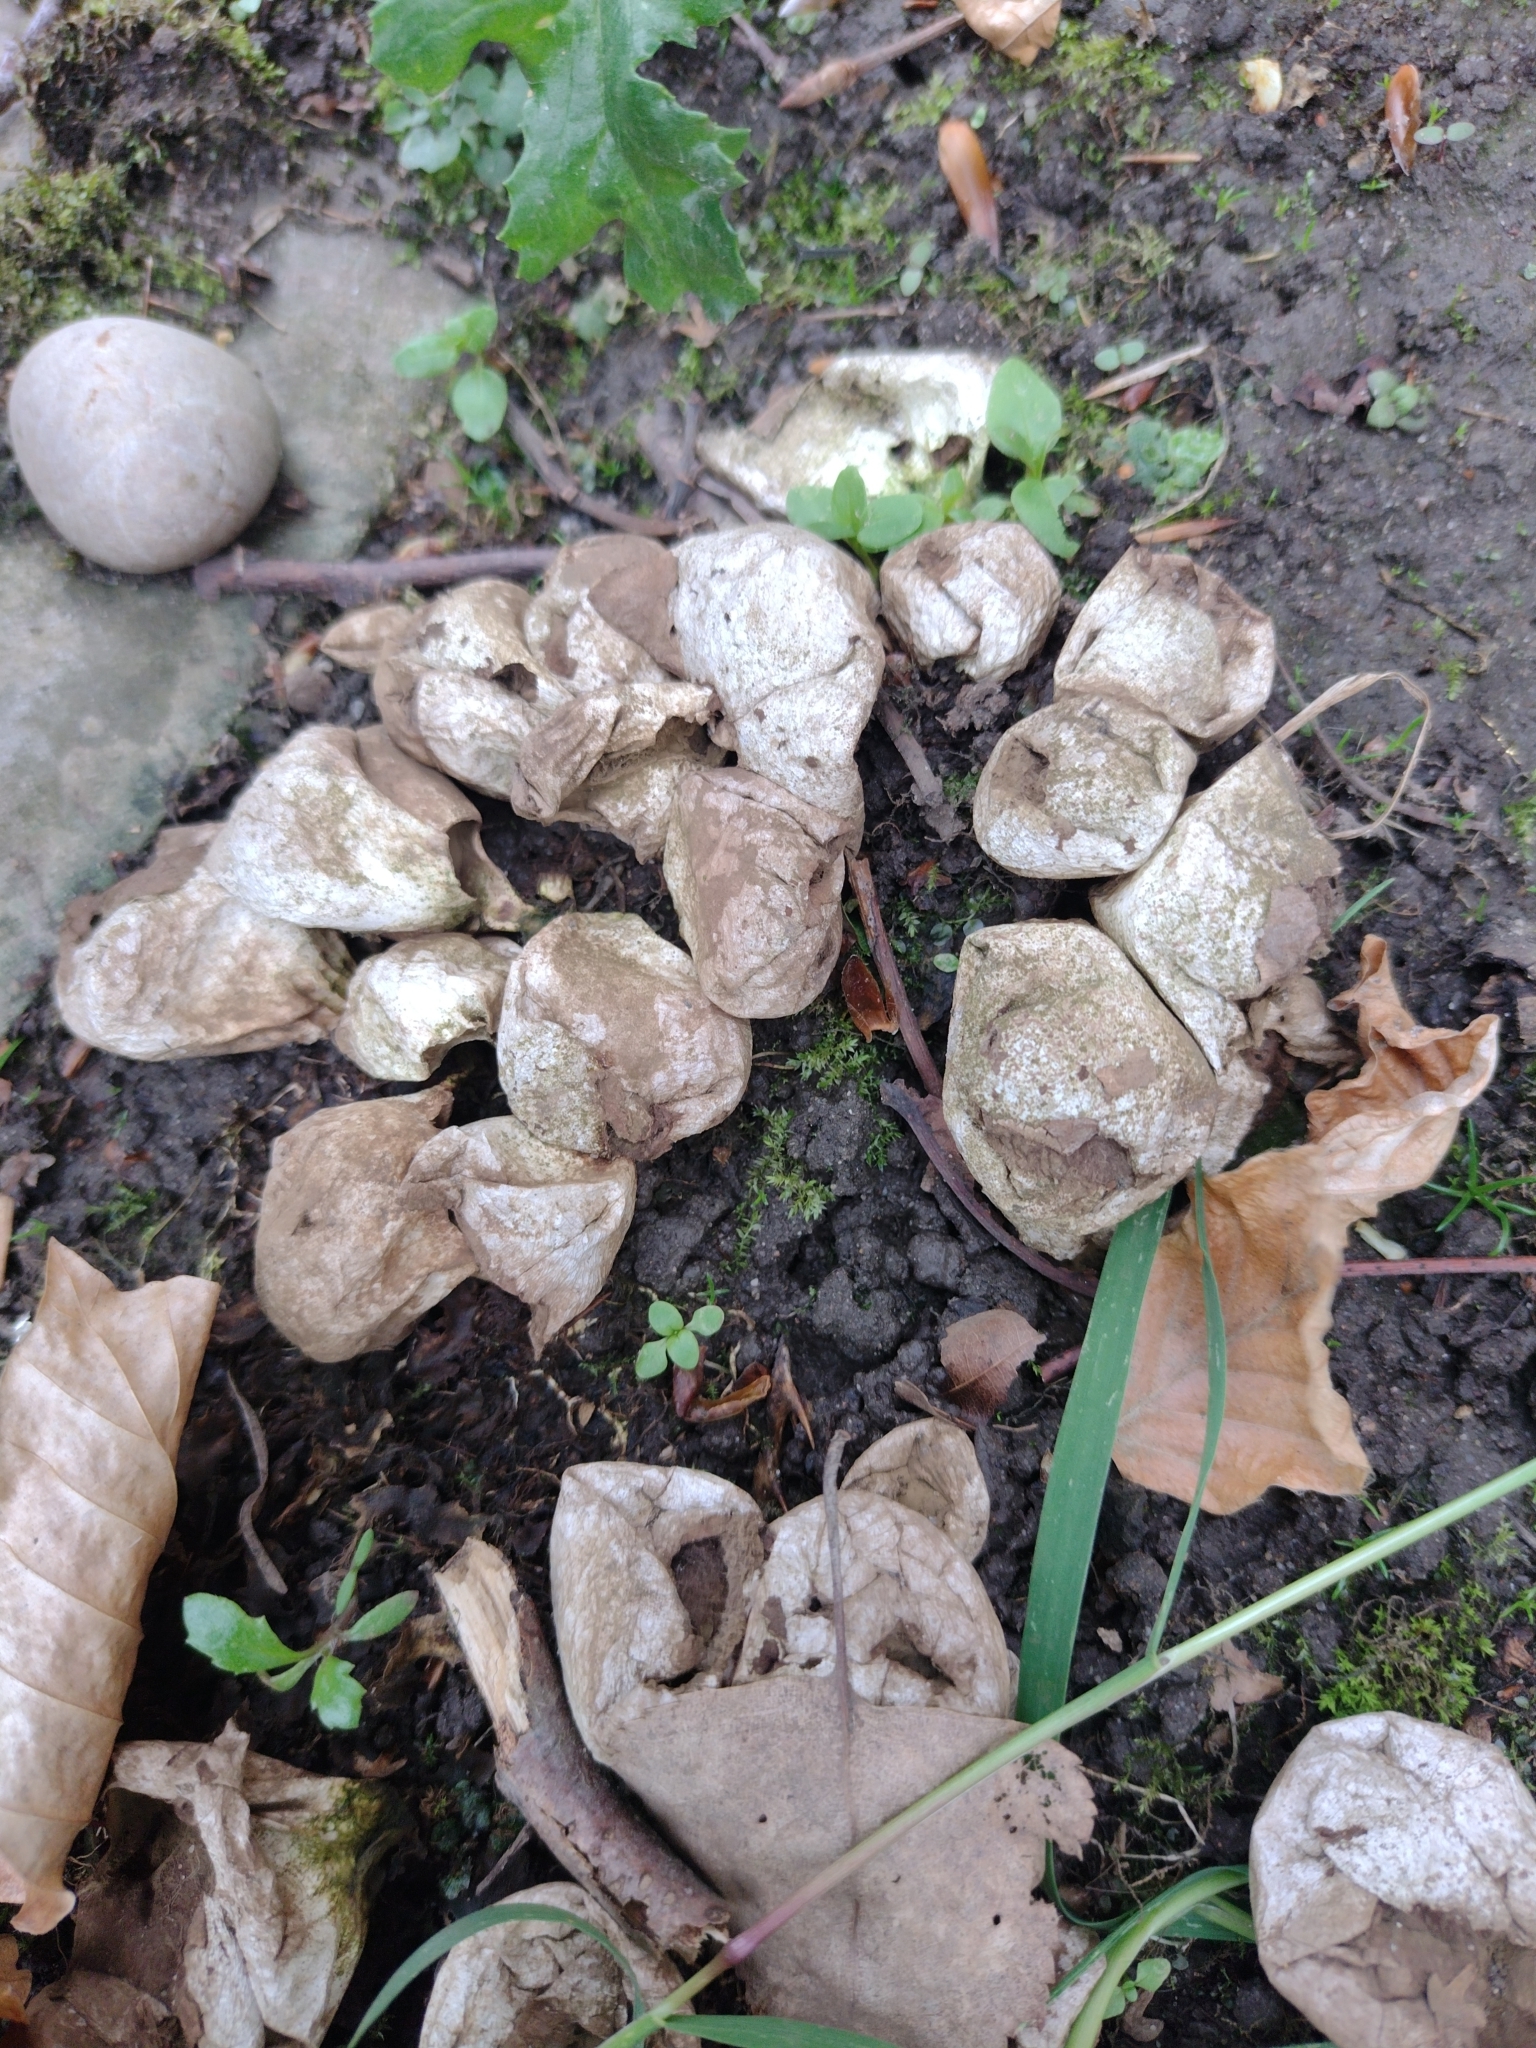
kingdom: Fungi
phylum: Basidiomycota
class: Agaricomycetes
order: Agaricales
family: Lycoperdaceae
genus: Apioperdon
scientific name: Apioperdon pyriforme
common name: Pear-shaped puffball
